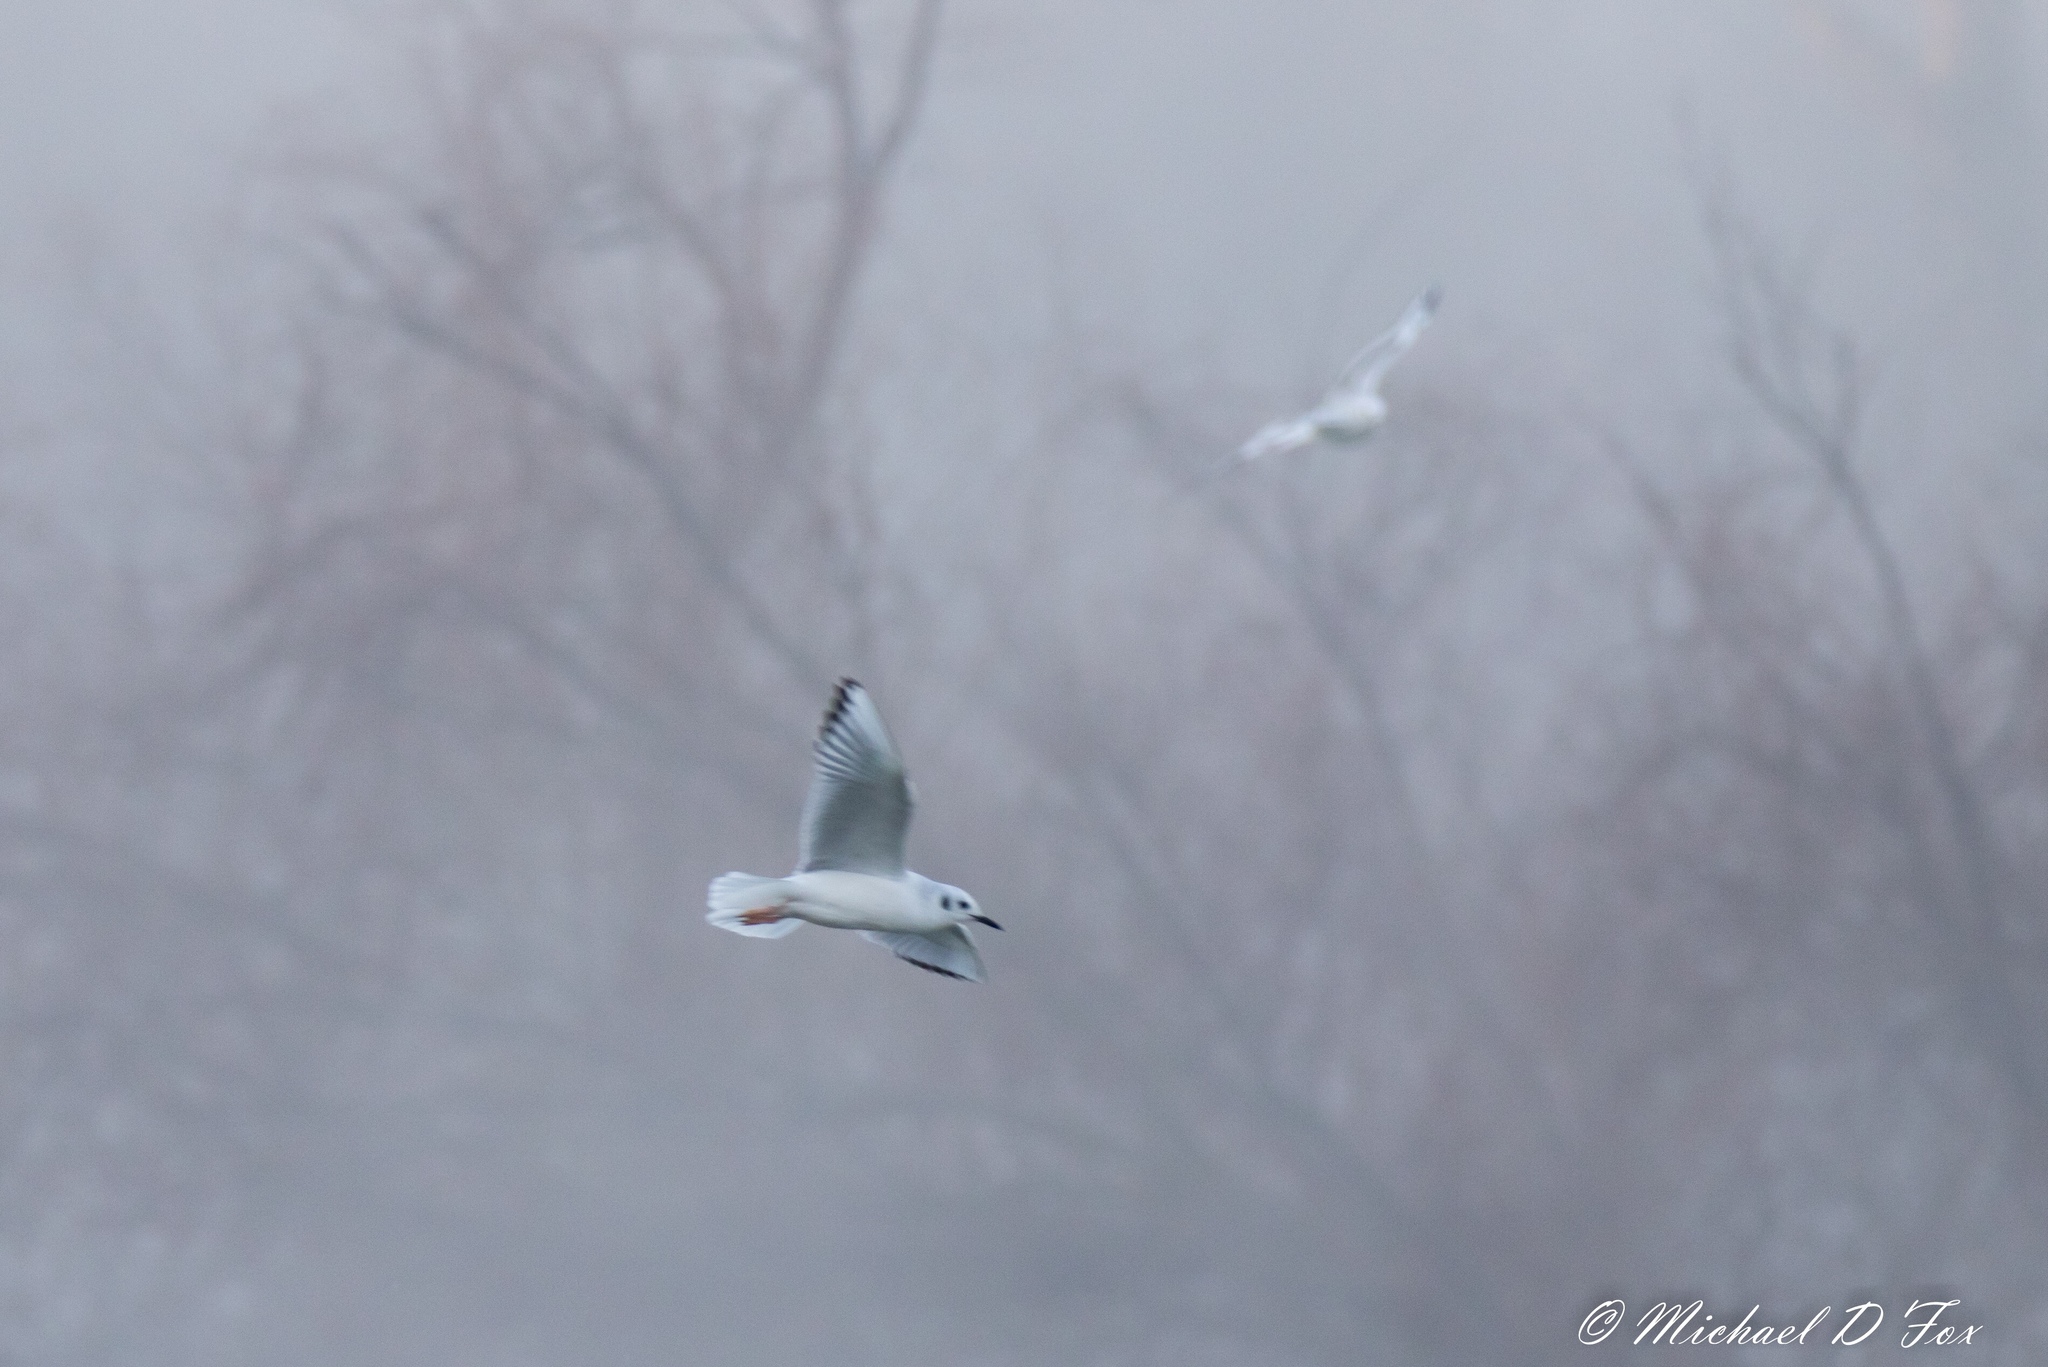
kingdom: Animalia
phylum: Chordata
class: Aves
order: Charadriiformes
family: Laridae
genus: Chroicocephalus
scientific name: Chroicocephalus philadelphia
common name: Bonaparte's gull
